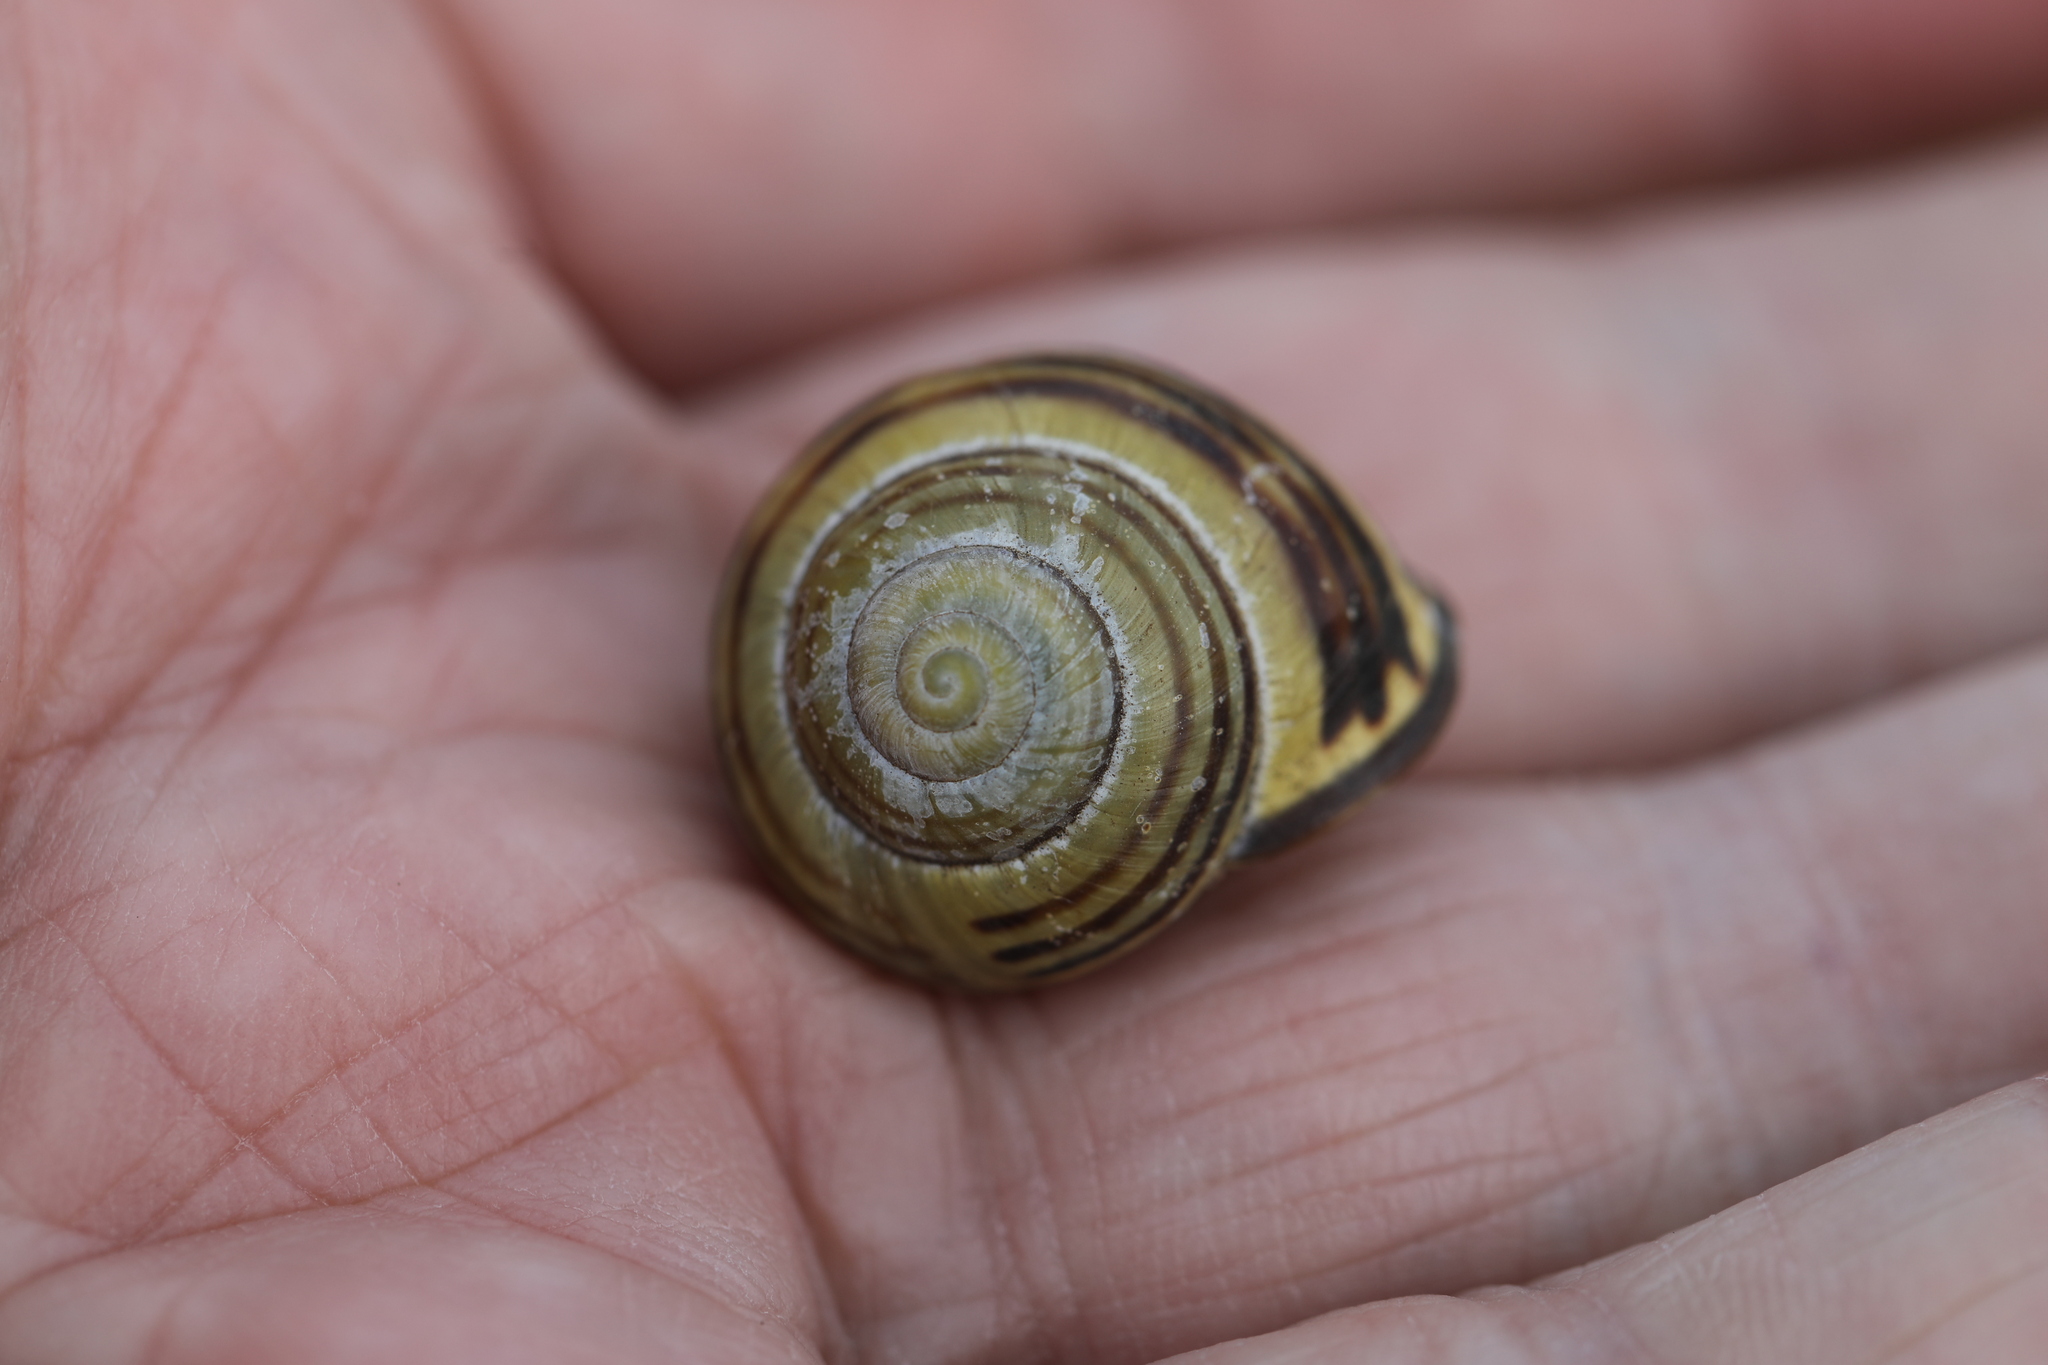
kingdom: Animalia
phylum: Mollusca
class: Gastropoda
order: Stylommatophora
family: Helicidae
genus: Cepaea
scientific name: Cepaea nemoralis
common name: Grovesnail
